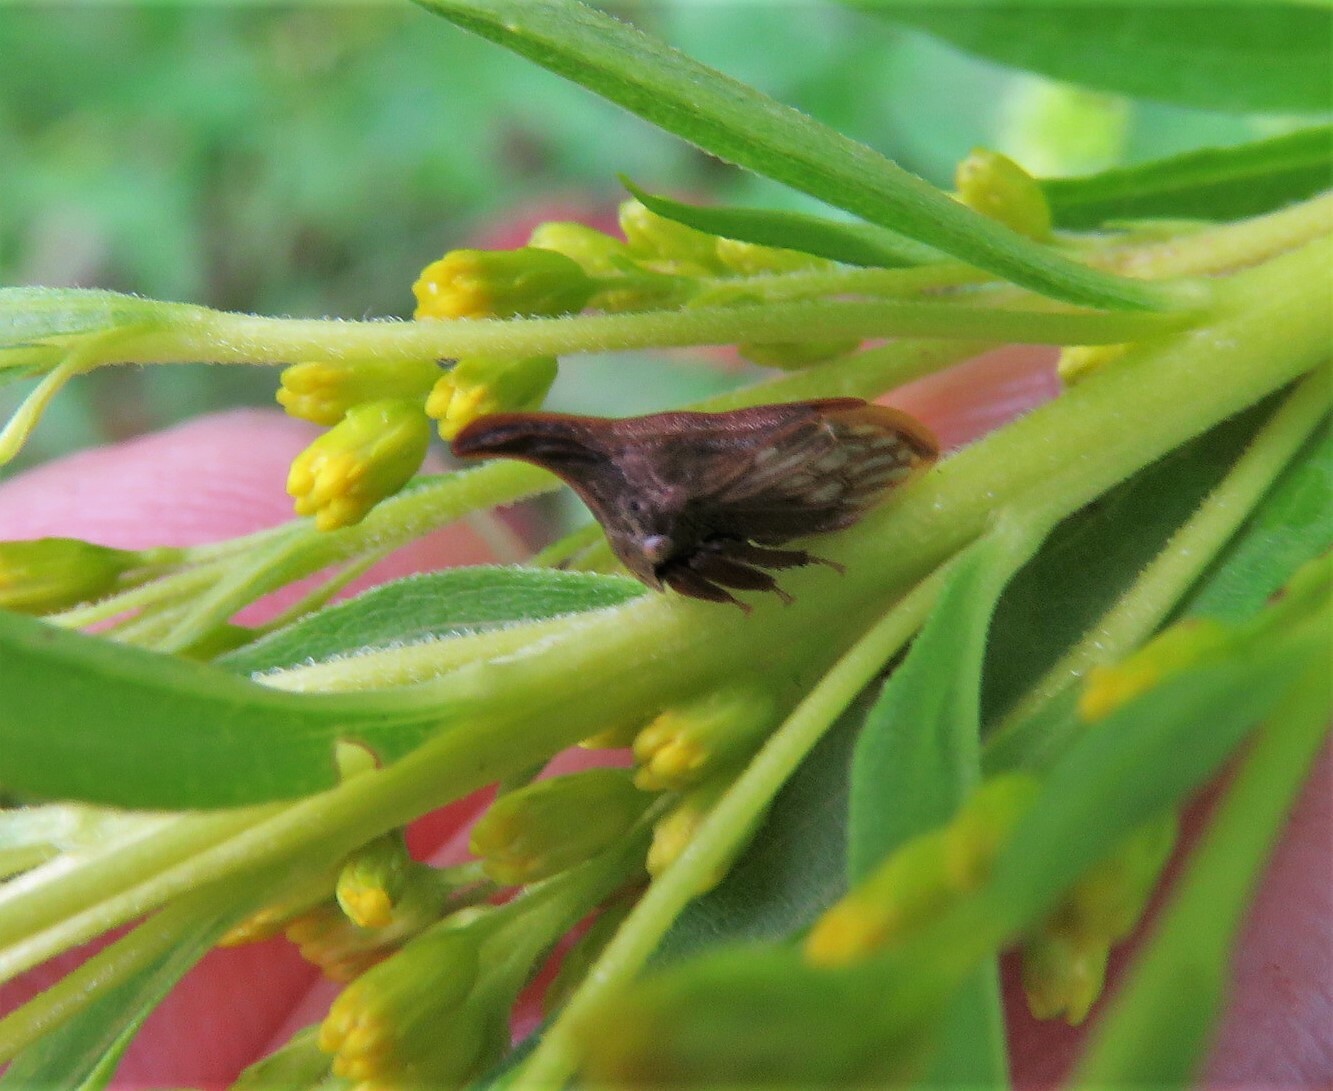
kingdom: Animalia
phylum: Arthropoda
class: Insecta
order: Hemiptera
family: Membracidae
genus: Enchenopa
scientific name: Enchenopa latipes
